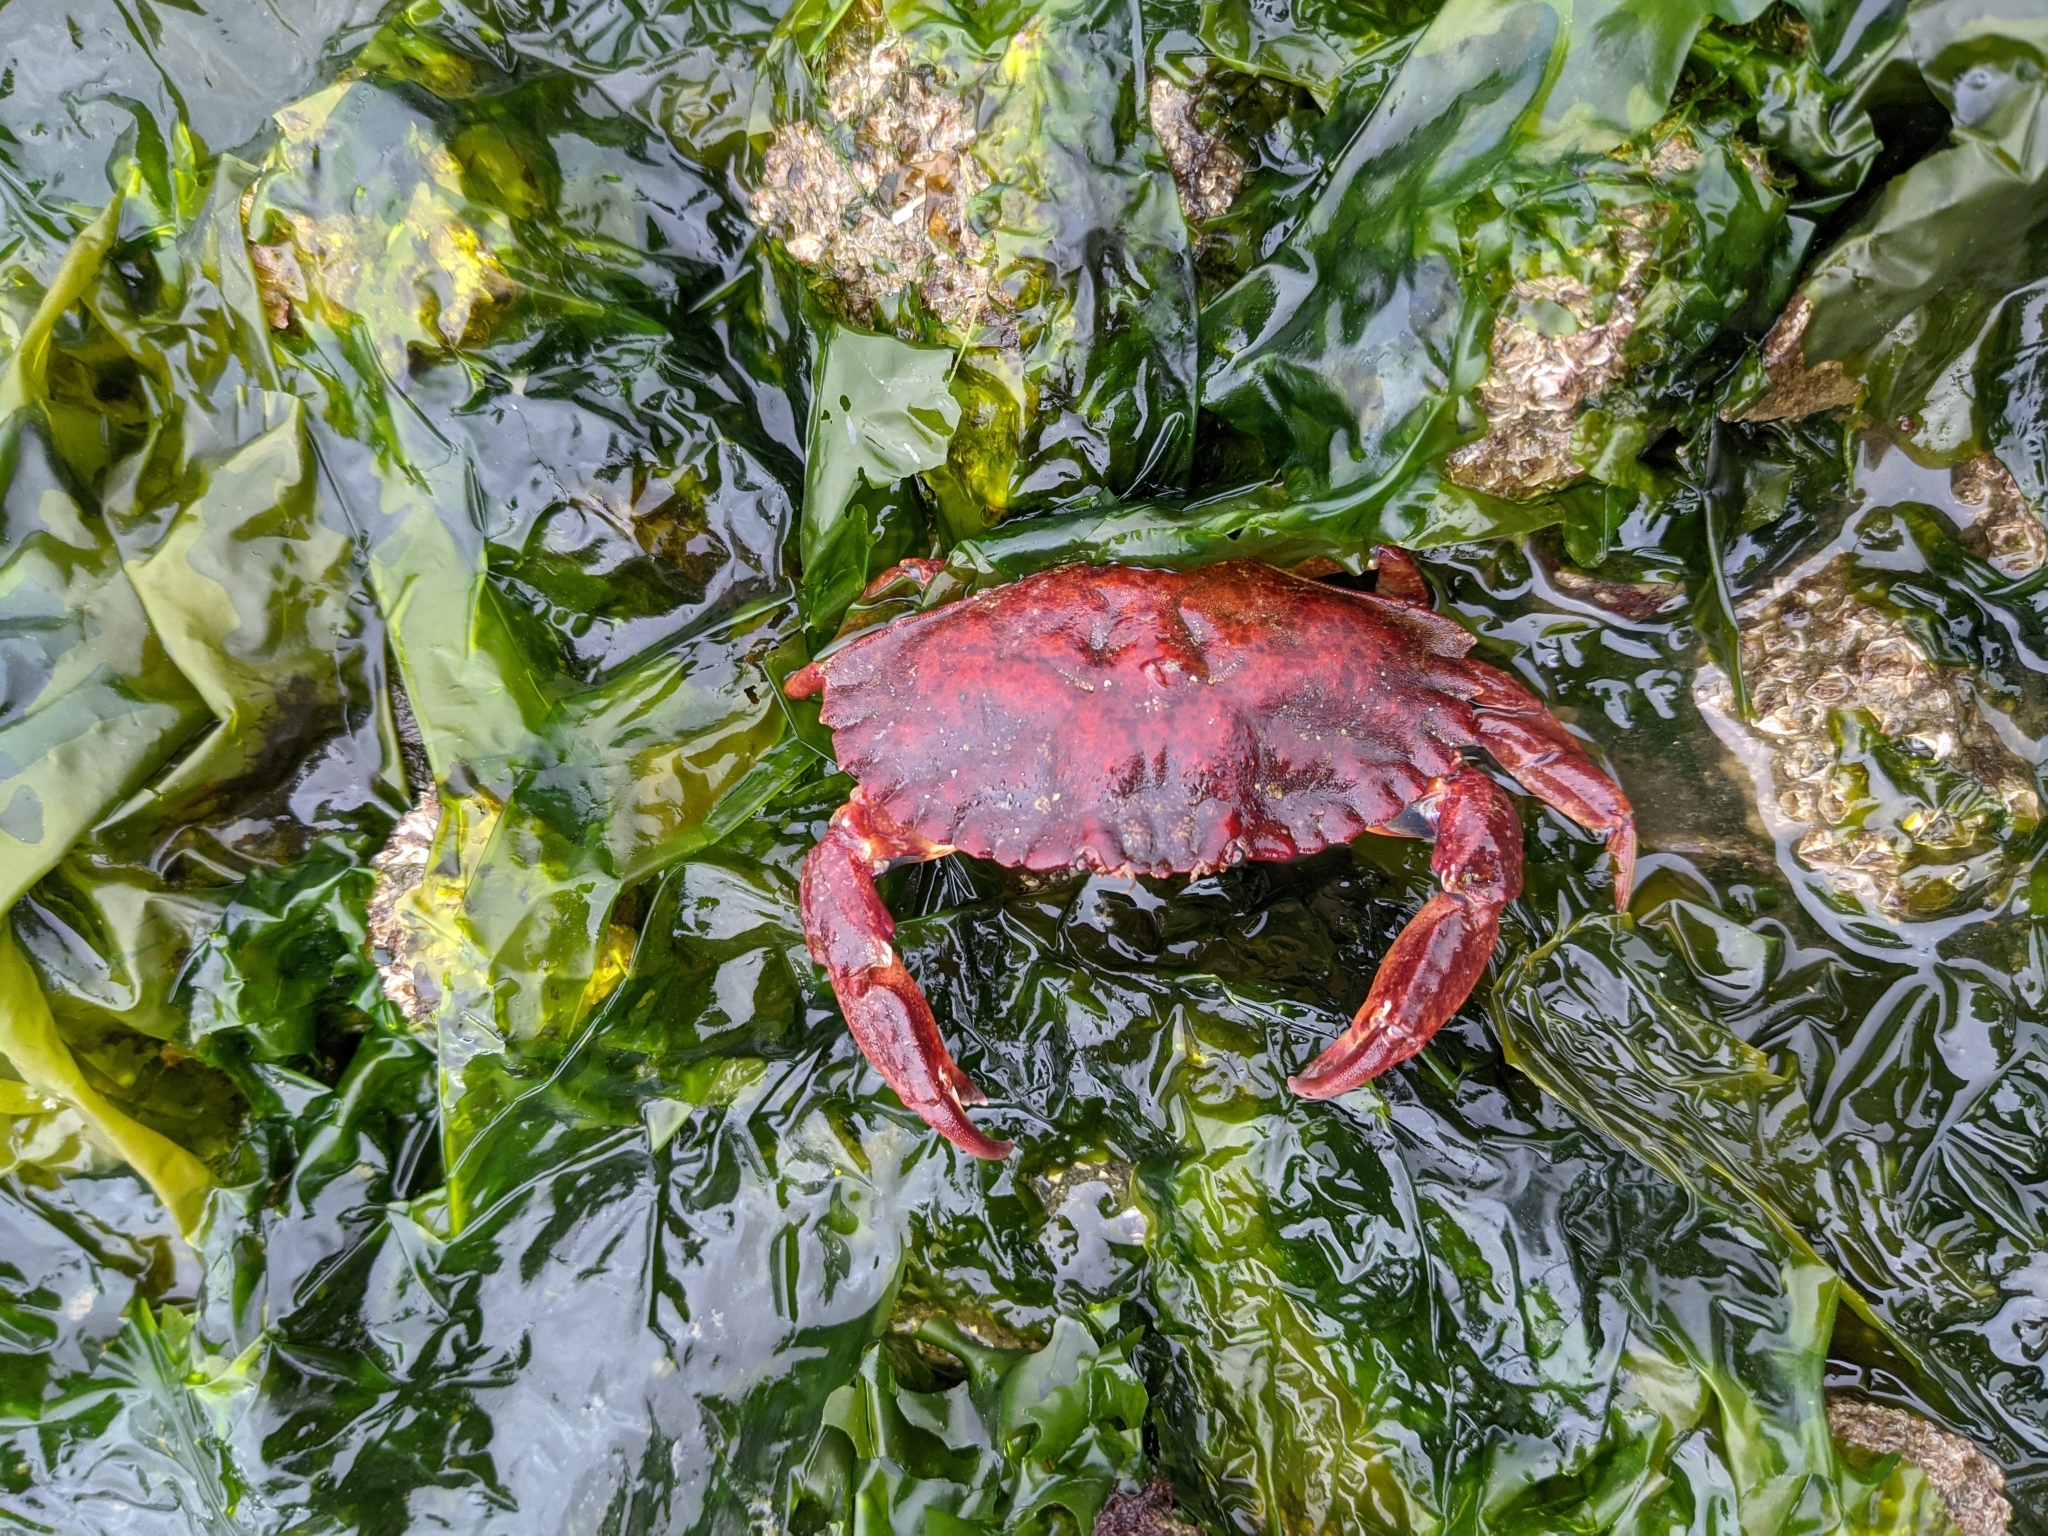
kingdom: Animalia
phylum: Arthropoda
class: Malacostraca
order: Decapoda
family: Cancridae
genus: Cancer
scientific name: Cancer productus
